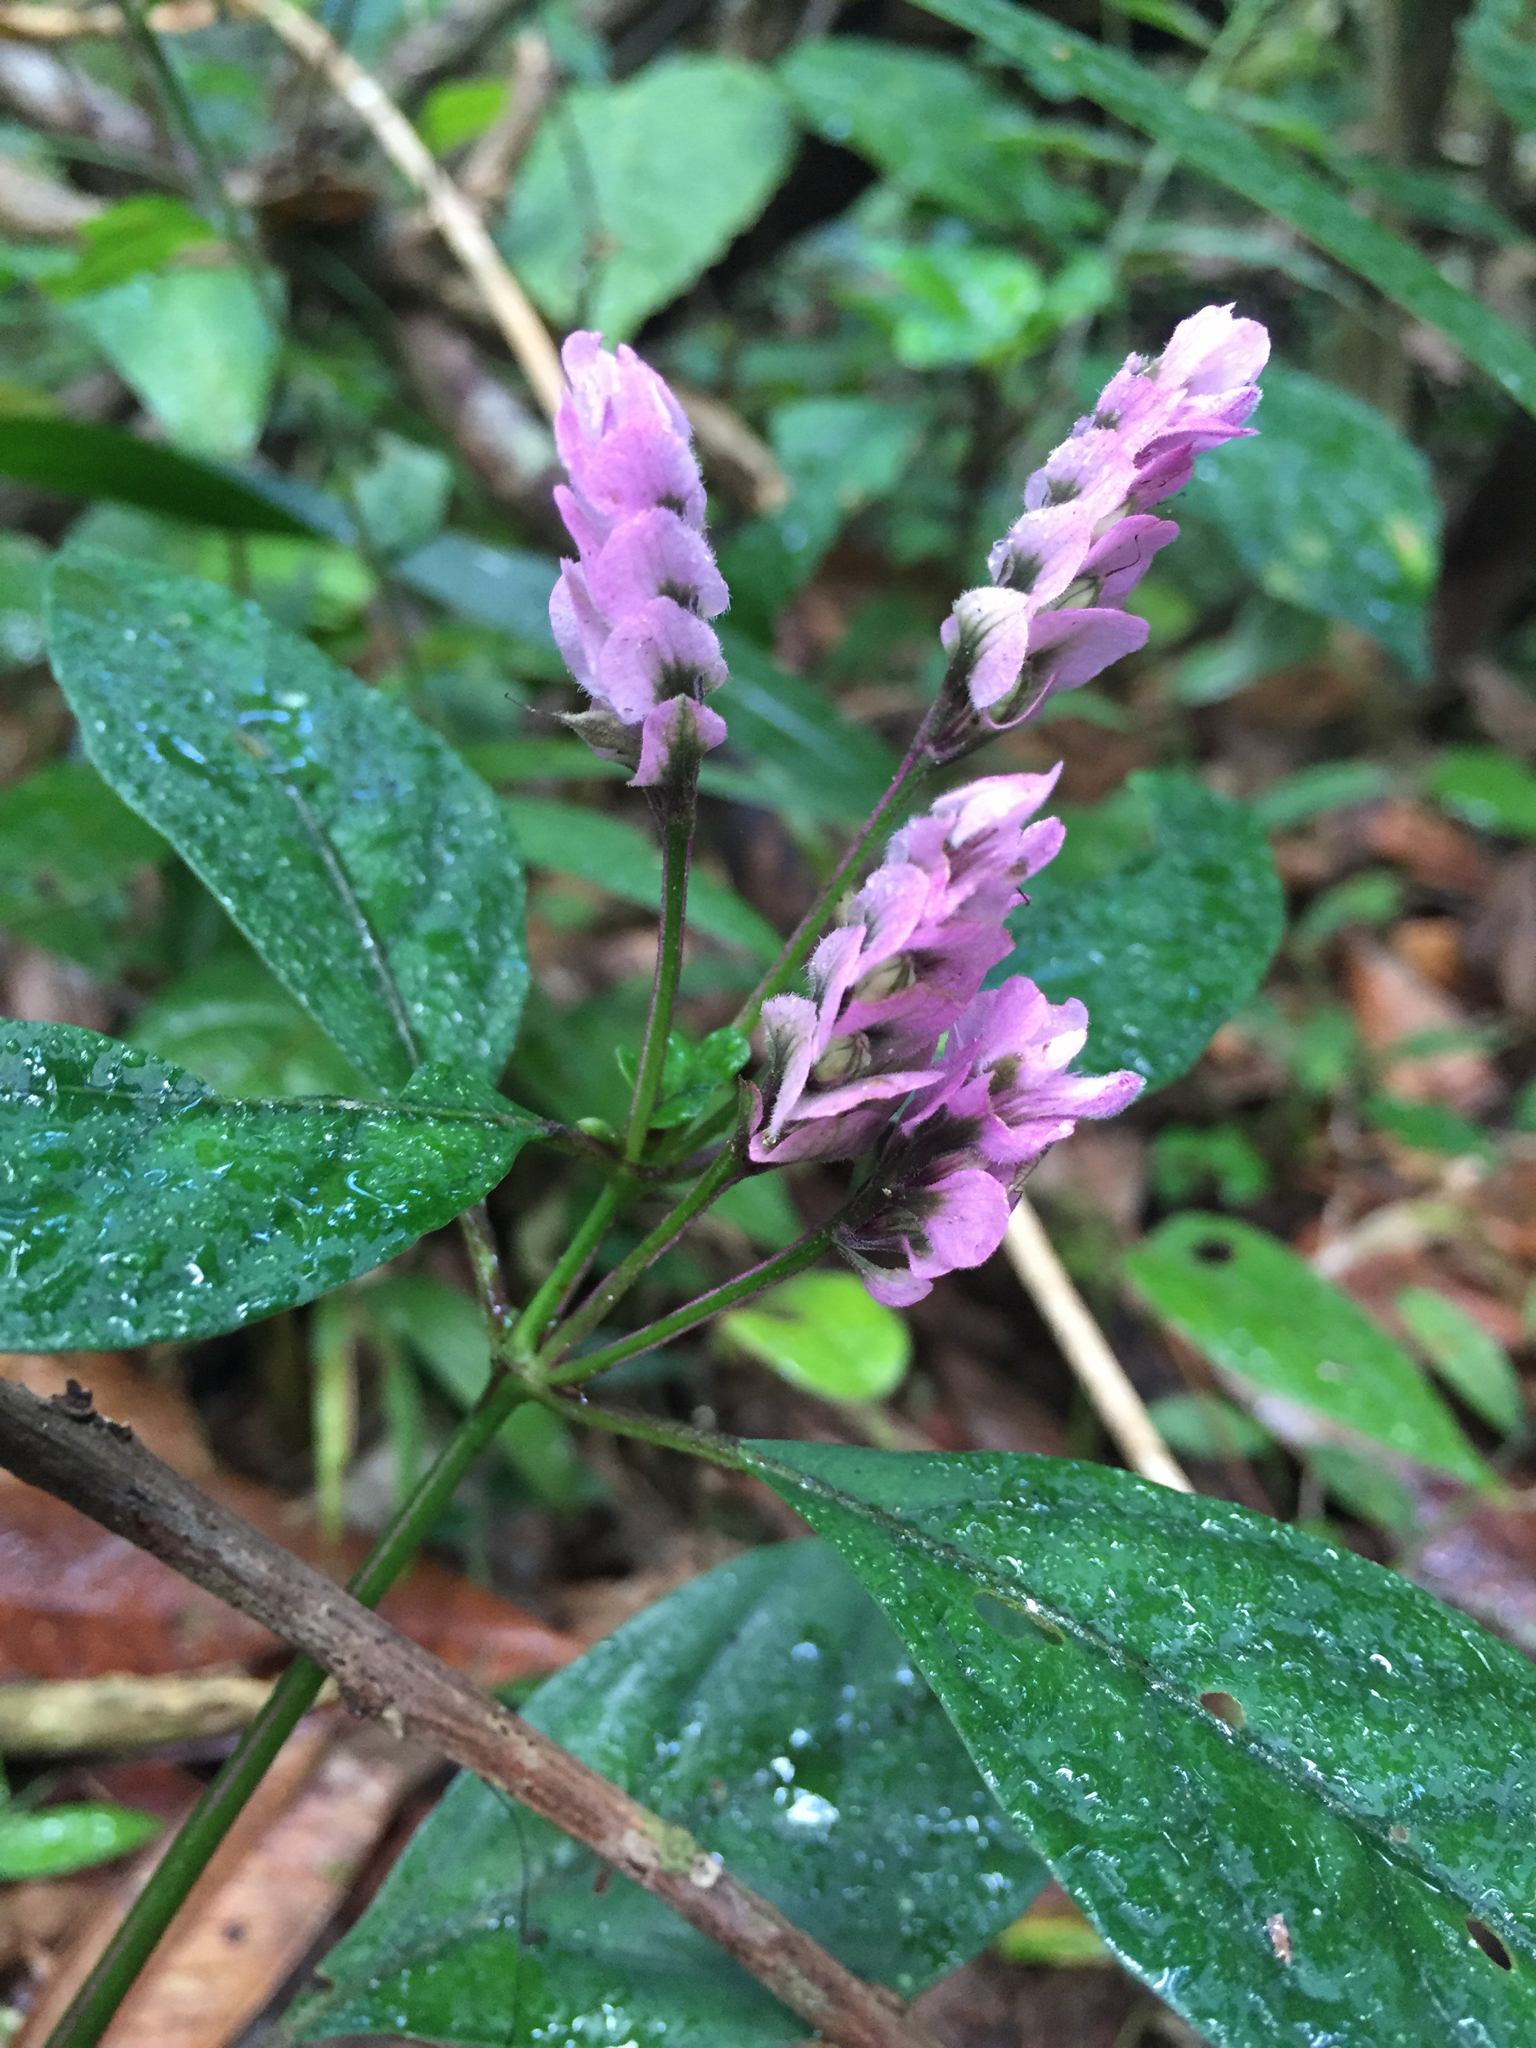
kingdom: Plantae
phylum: Tracheophyta
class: Magnoliopsida
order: Lamiales
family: Acanthaceae
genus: Justicia
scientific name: Justicia rhodoptera
